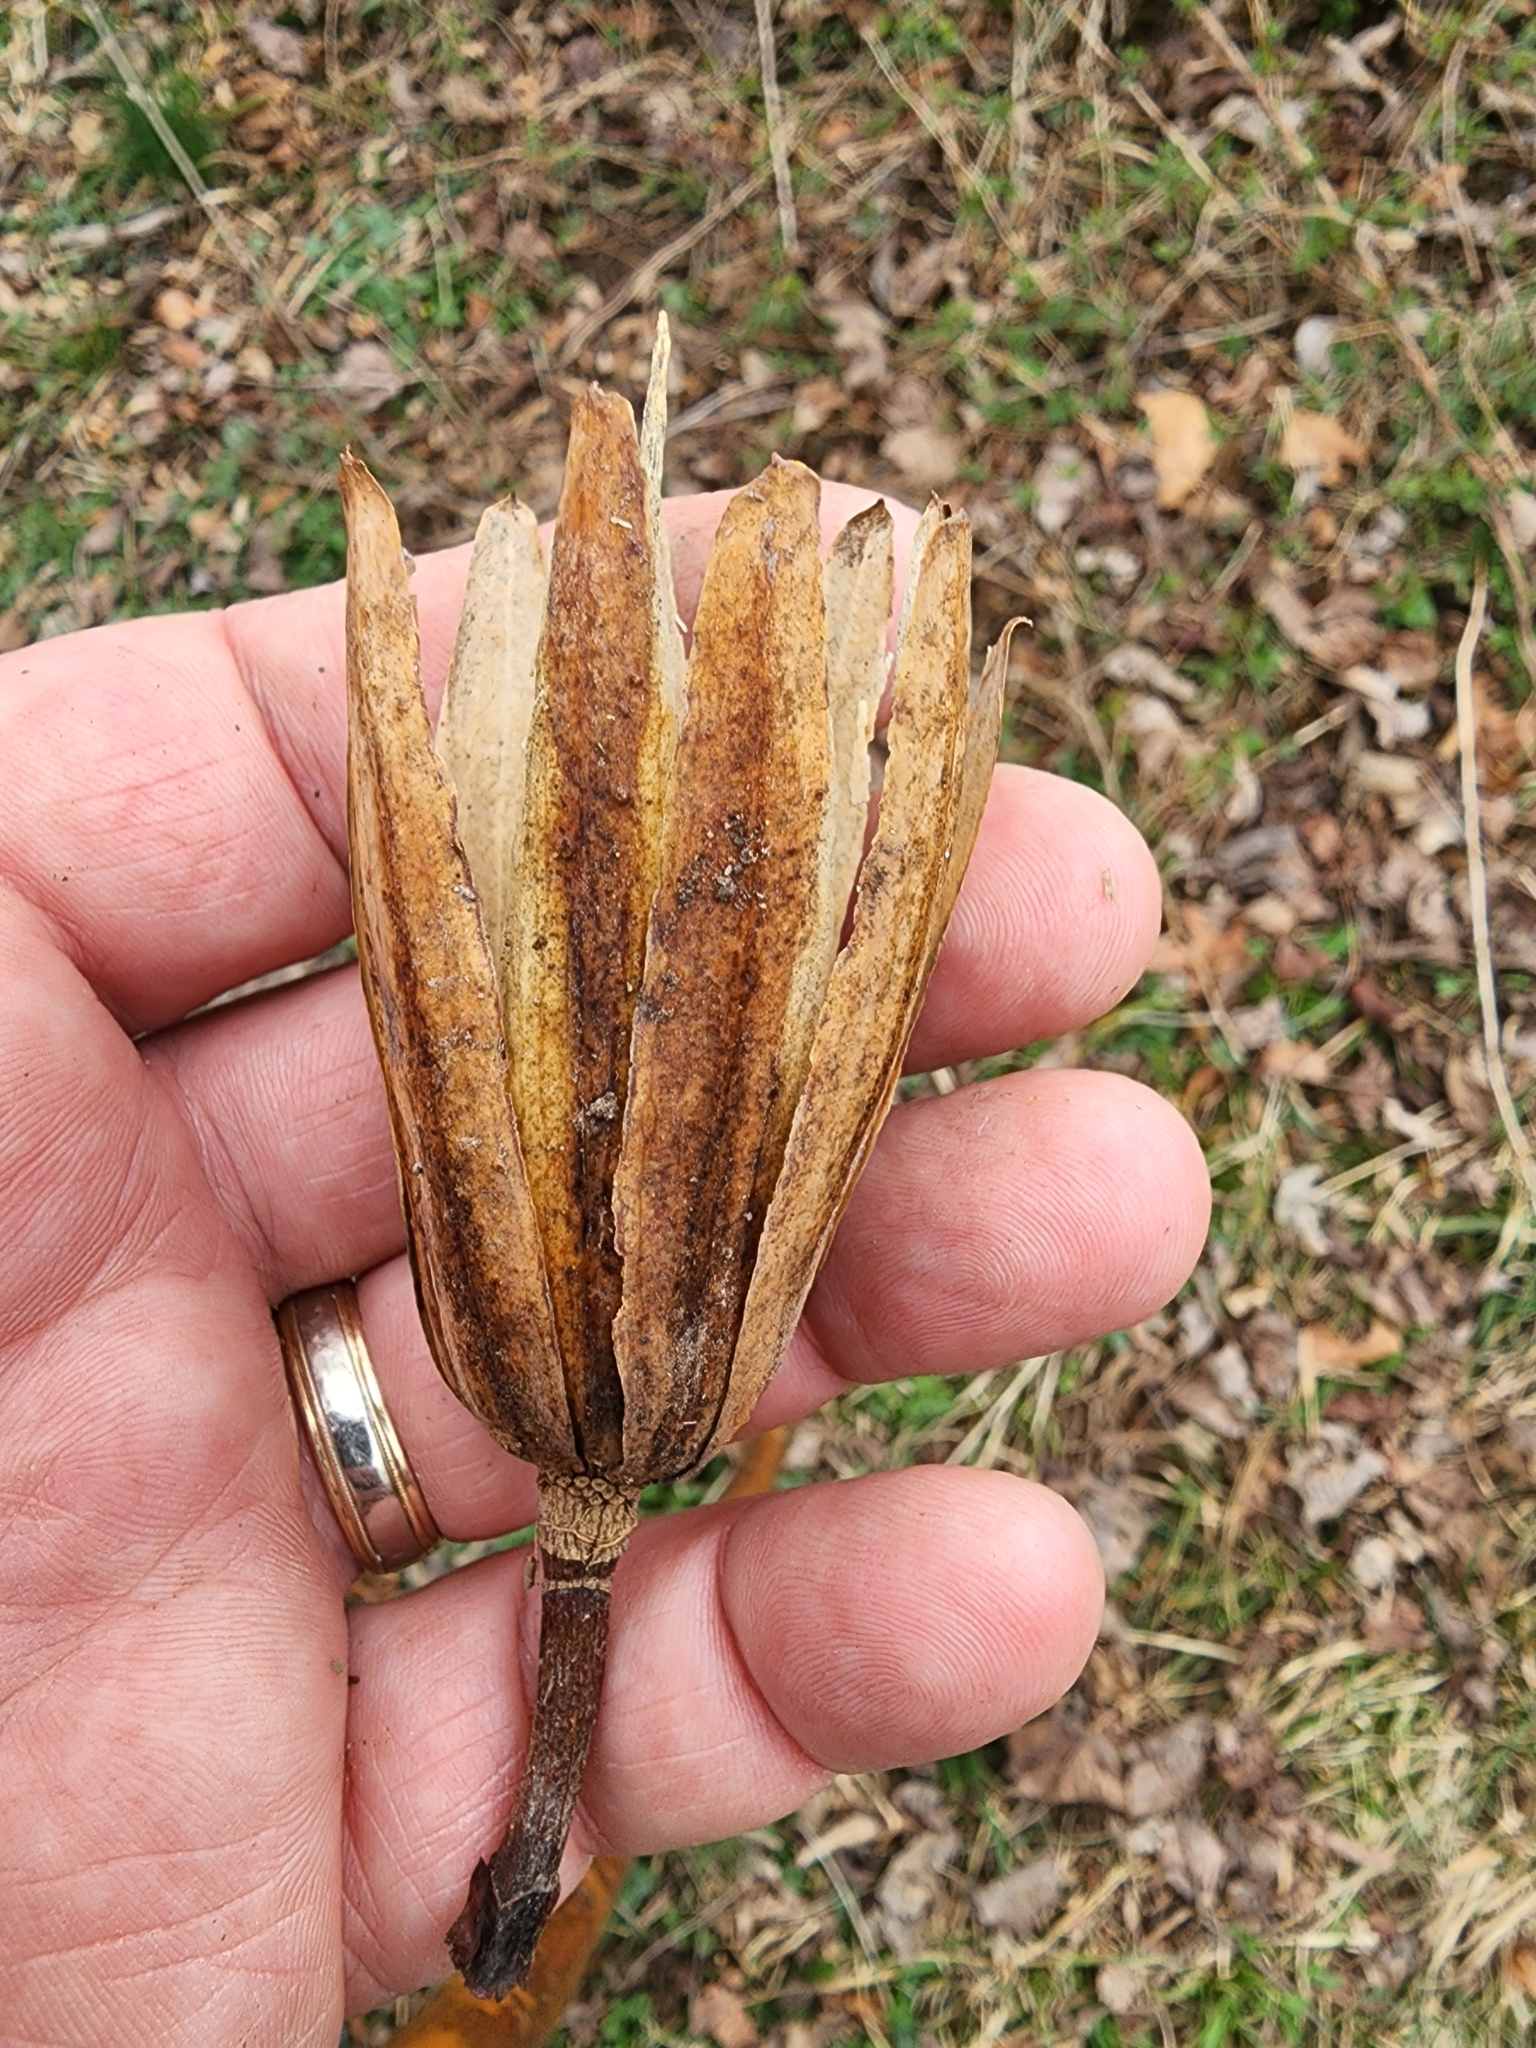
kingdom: Plantae
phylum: Tracheophyta
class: Magnoliopsida
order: Magnoliales
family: Magnoliaceae
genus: Liriodendron
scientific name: Liriodendron tulipifera
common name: Tulip tree
